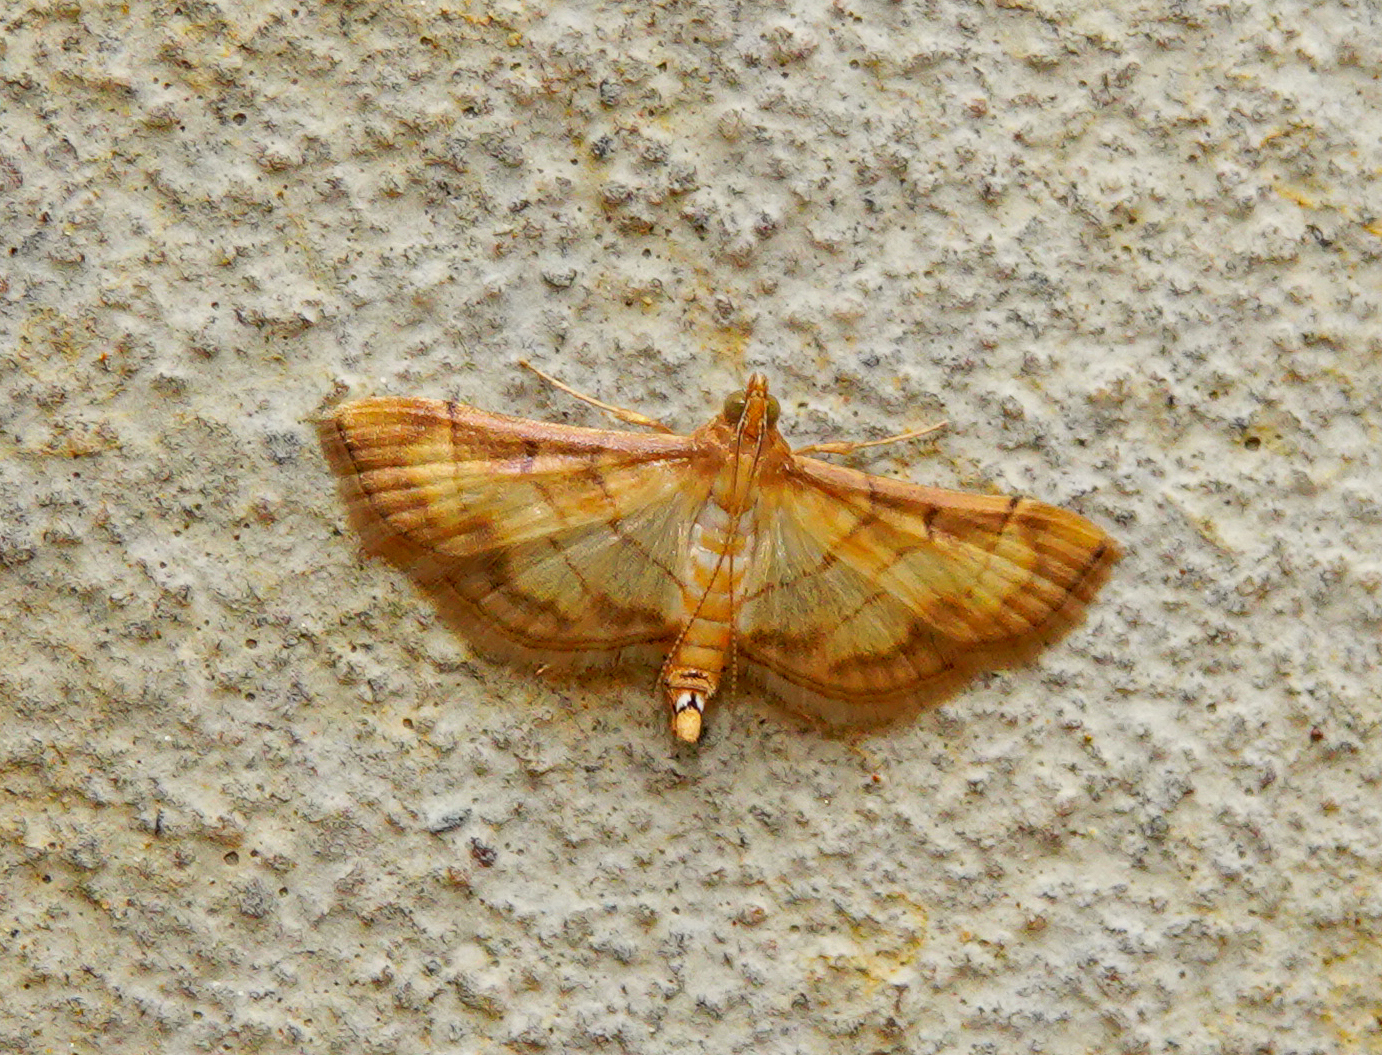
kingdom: Animalia
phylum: Arthropoda
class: Insecta
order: Lepidoptera
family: Crambidae
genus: Cnaphalocrocis
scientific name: Cnaphalocrocis Marasmia exigua
